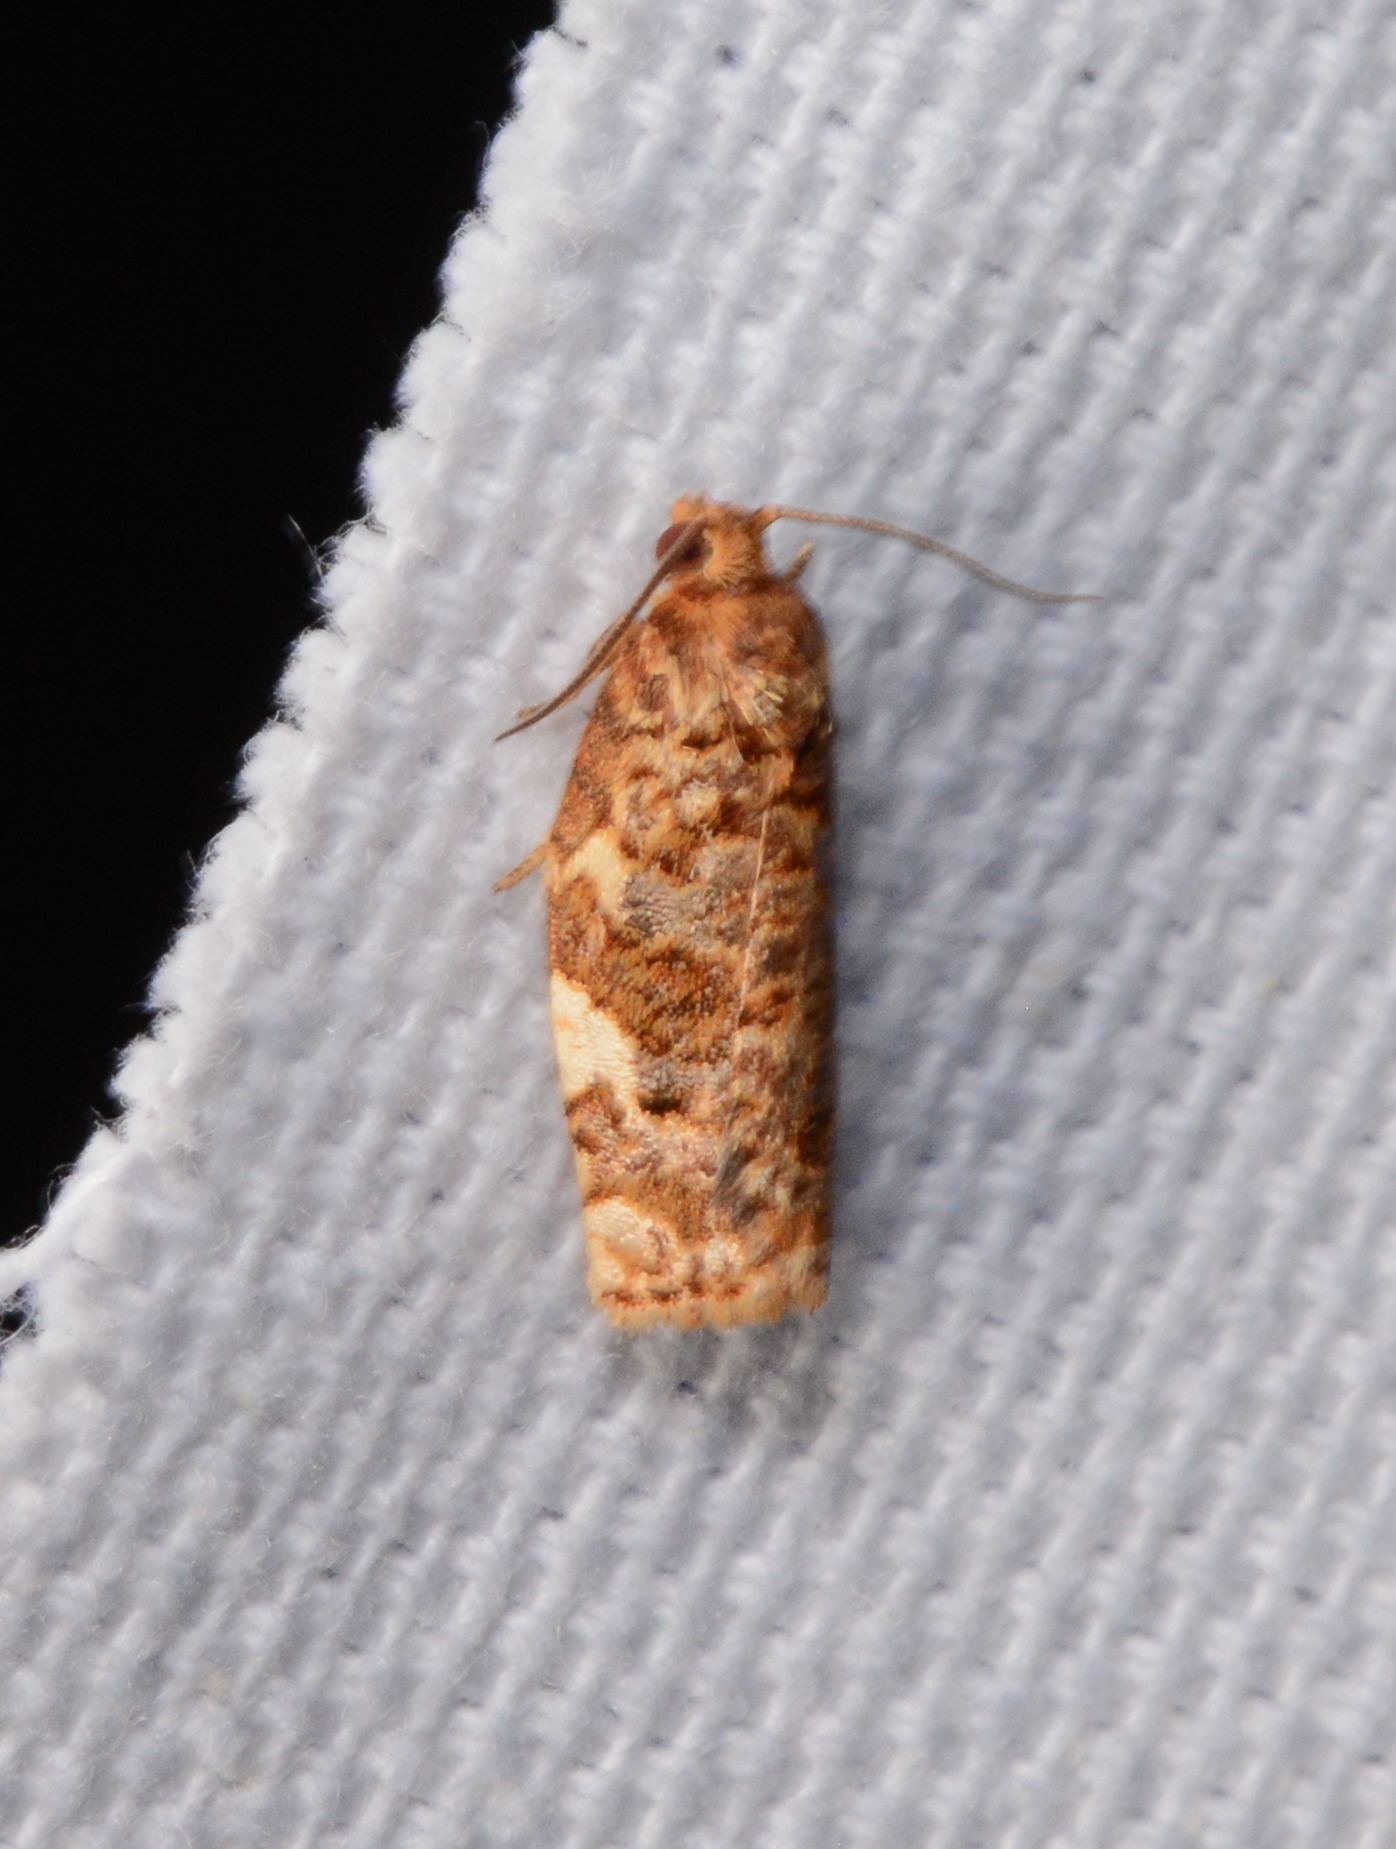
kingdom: Animalia
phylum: Arthropoda
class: Insecta
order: Lepidoptera
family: Tortricidae
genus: Archips
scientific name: Archips argyrospila
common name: Fruit-tree leafroller moth
